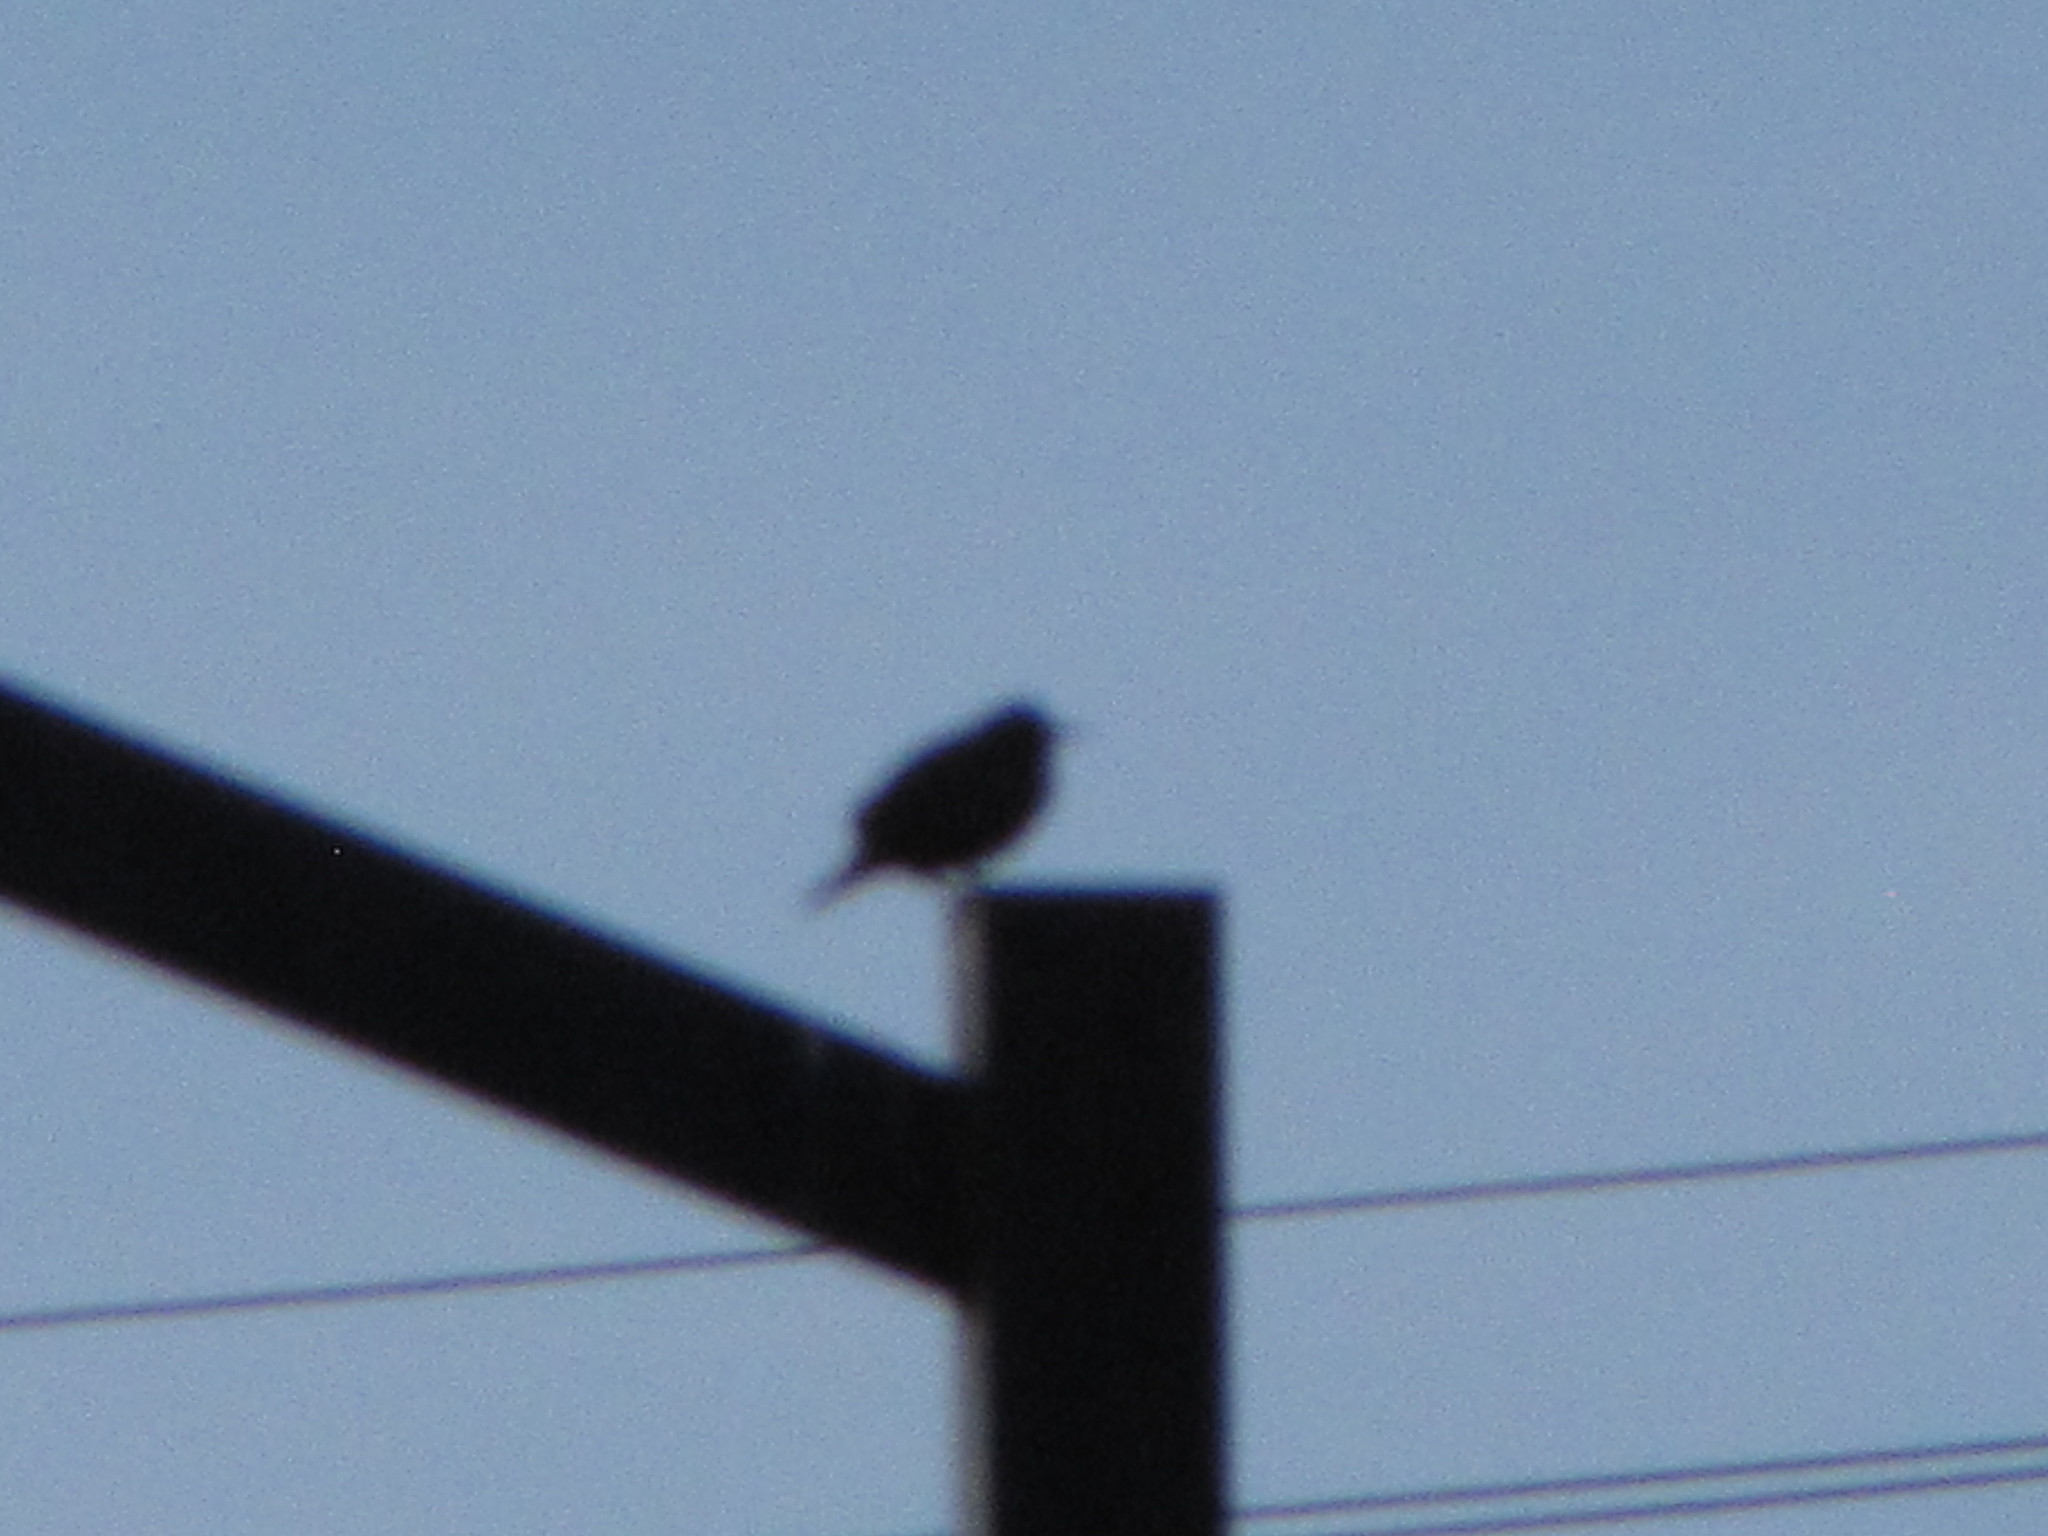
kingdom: Animalia
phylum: Chordata
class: Aves
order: Passeriformes
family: Sturnidae
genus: Sturnus
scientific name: Sturnus vulgaris
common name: Common starling
